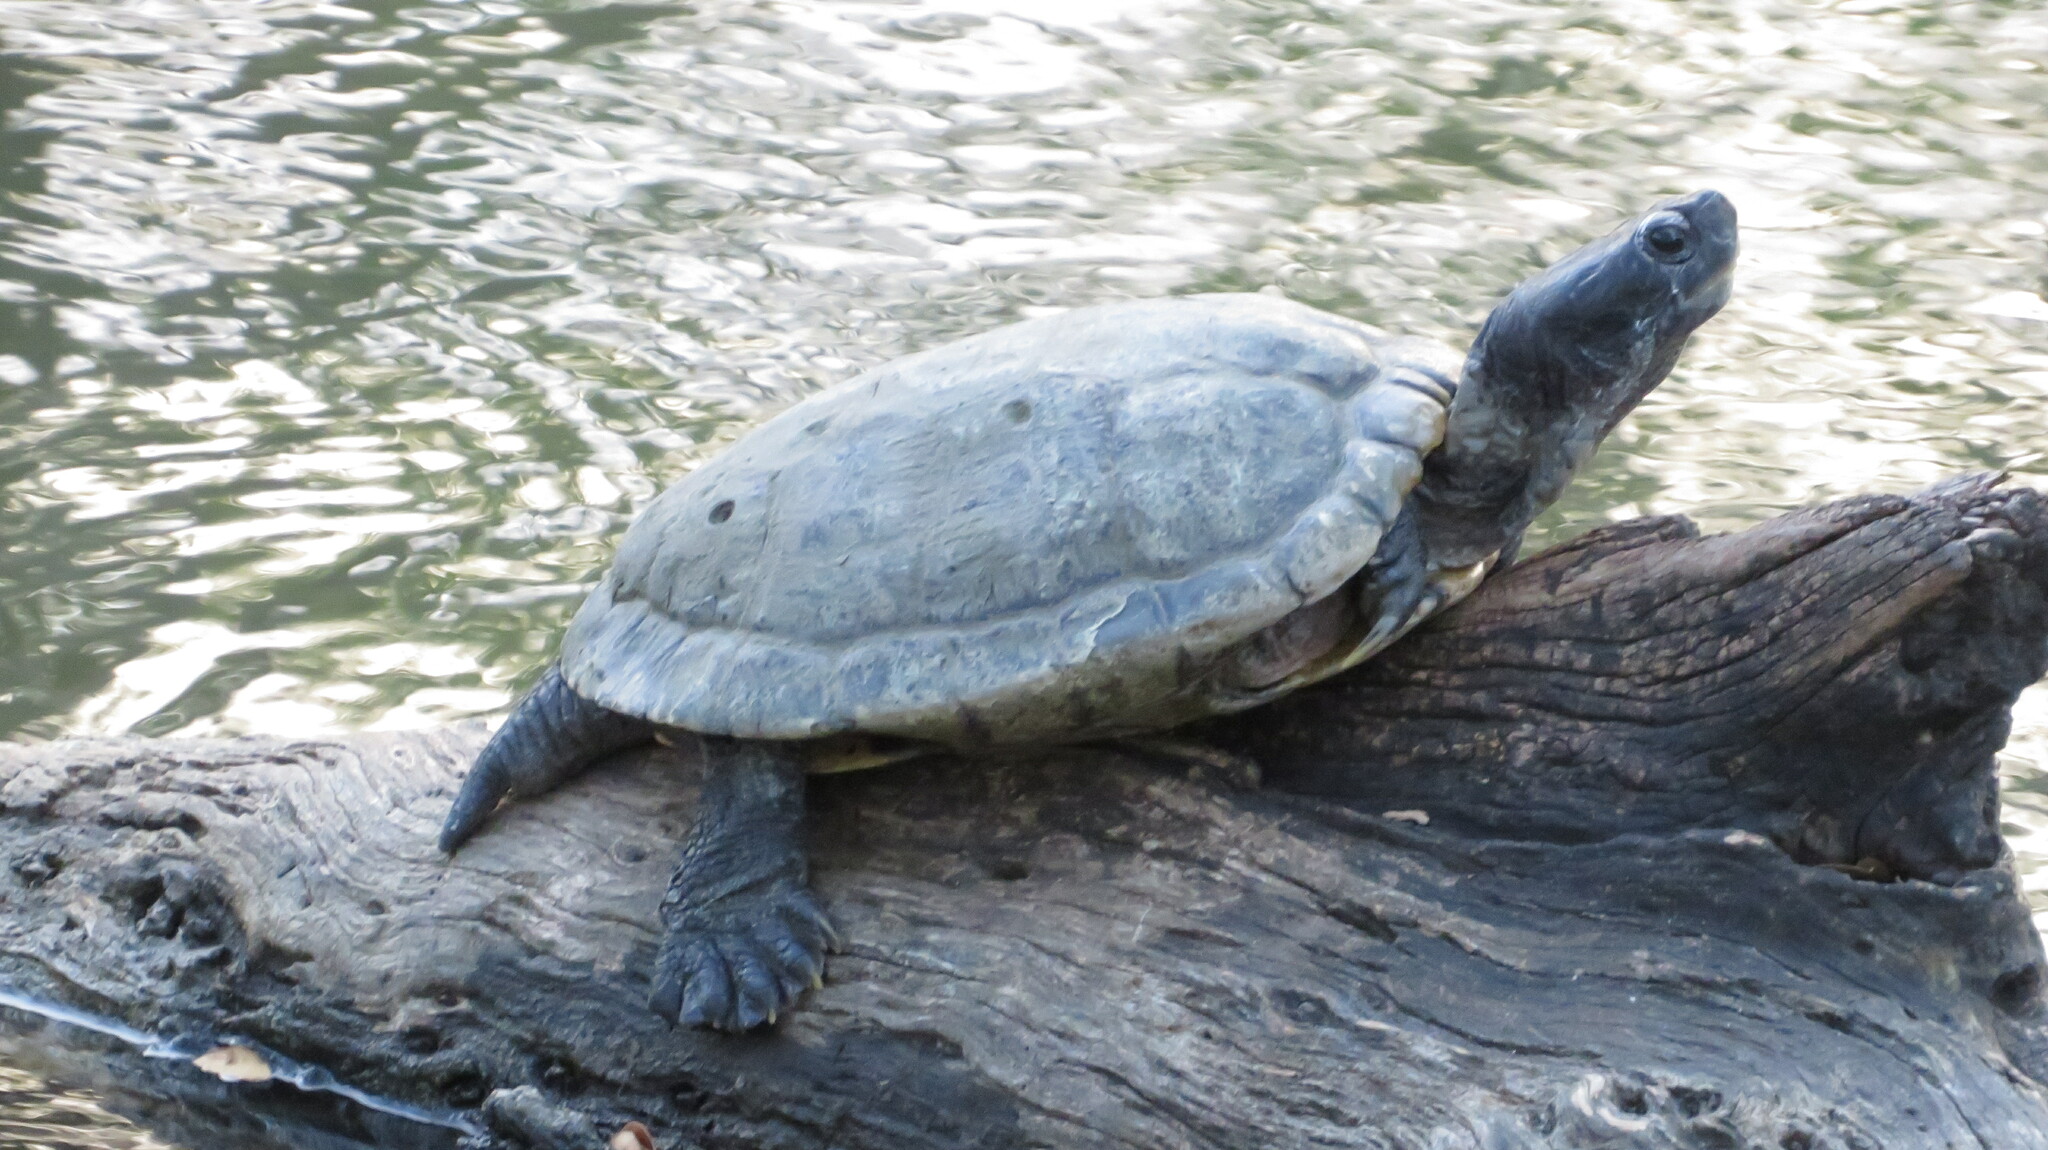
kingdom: Animalia
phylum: Chordata
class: Testudines
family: Emydidae
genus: Trachemys
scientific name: Trachemys scripta
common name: Slider
